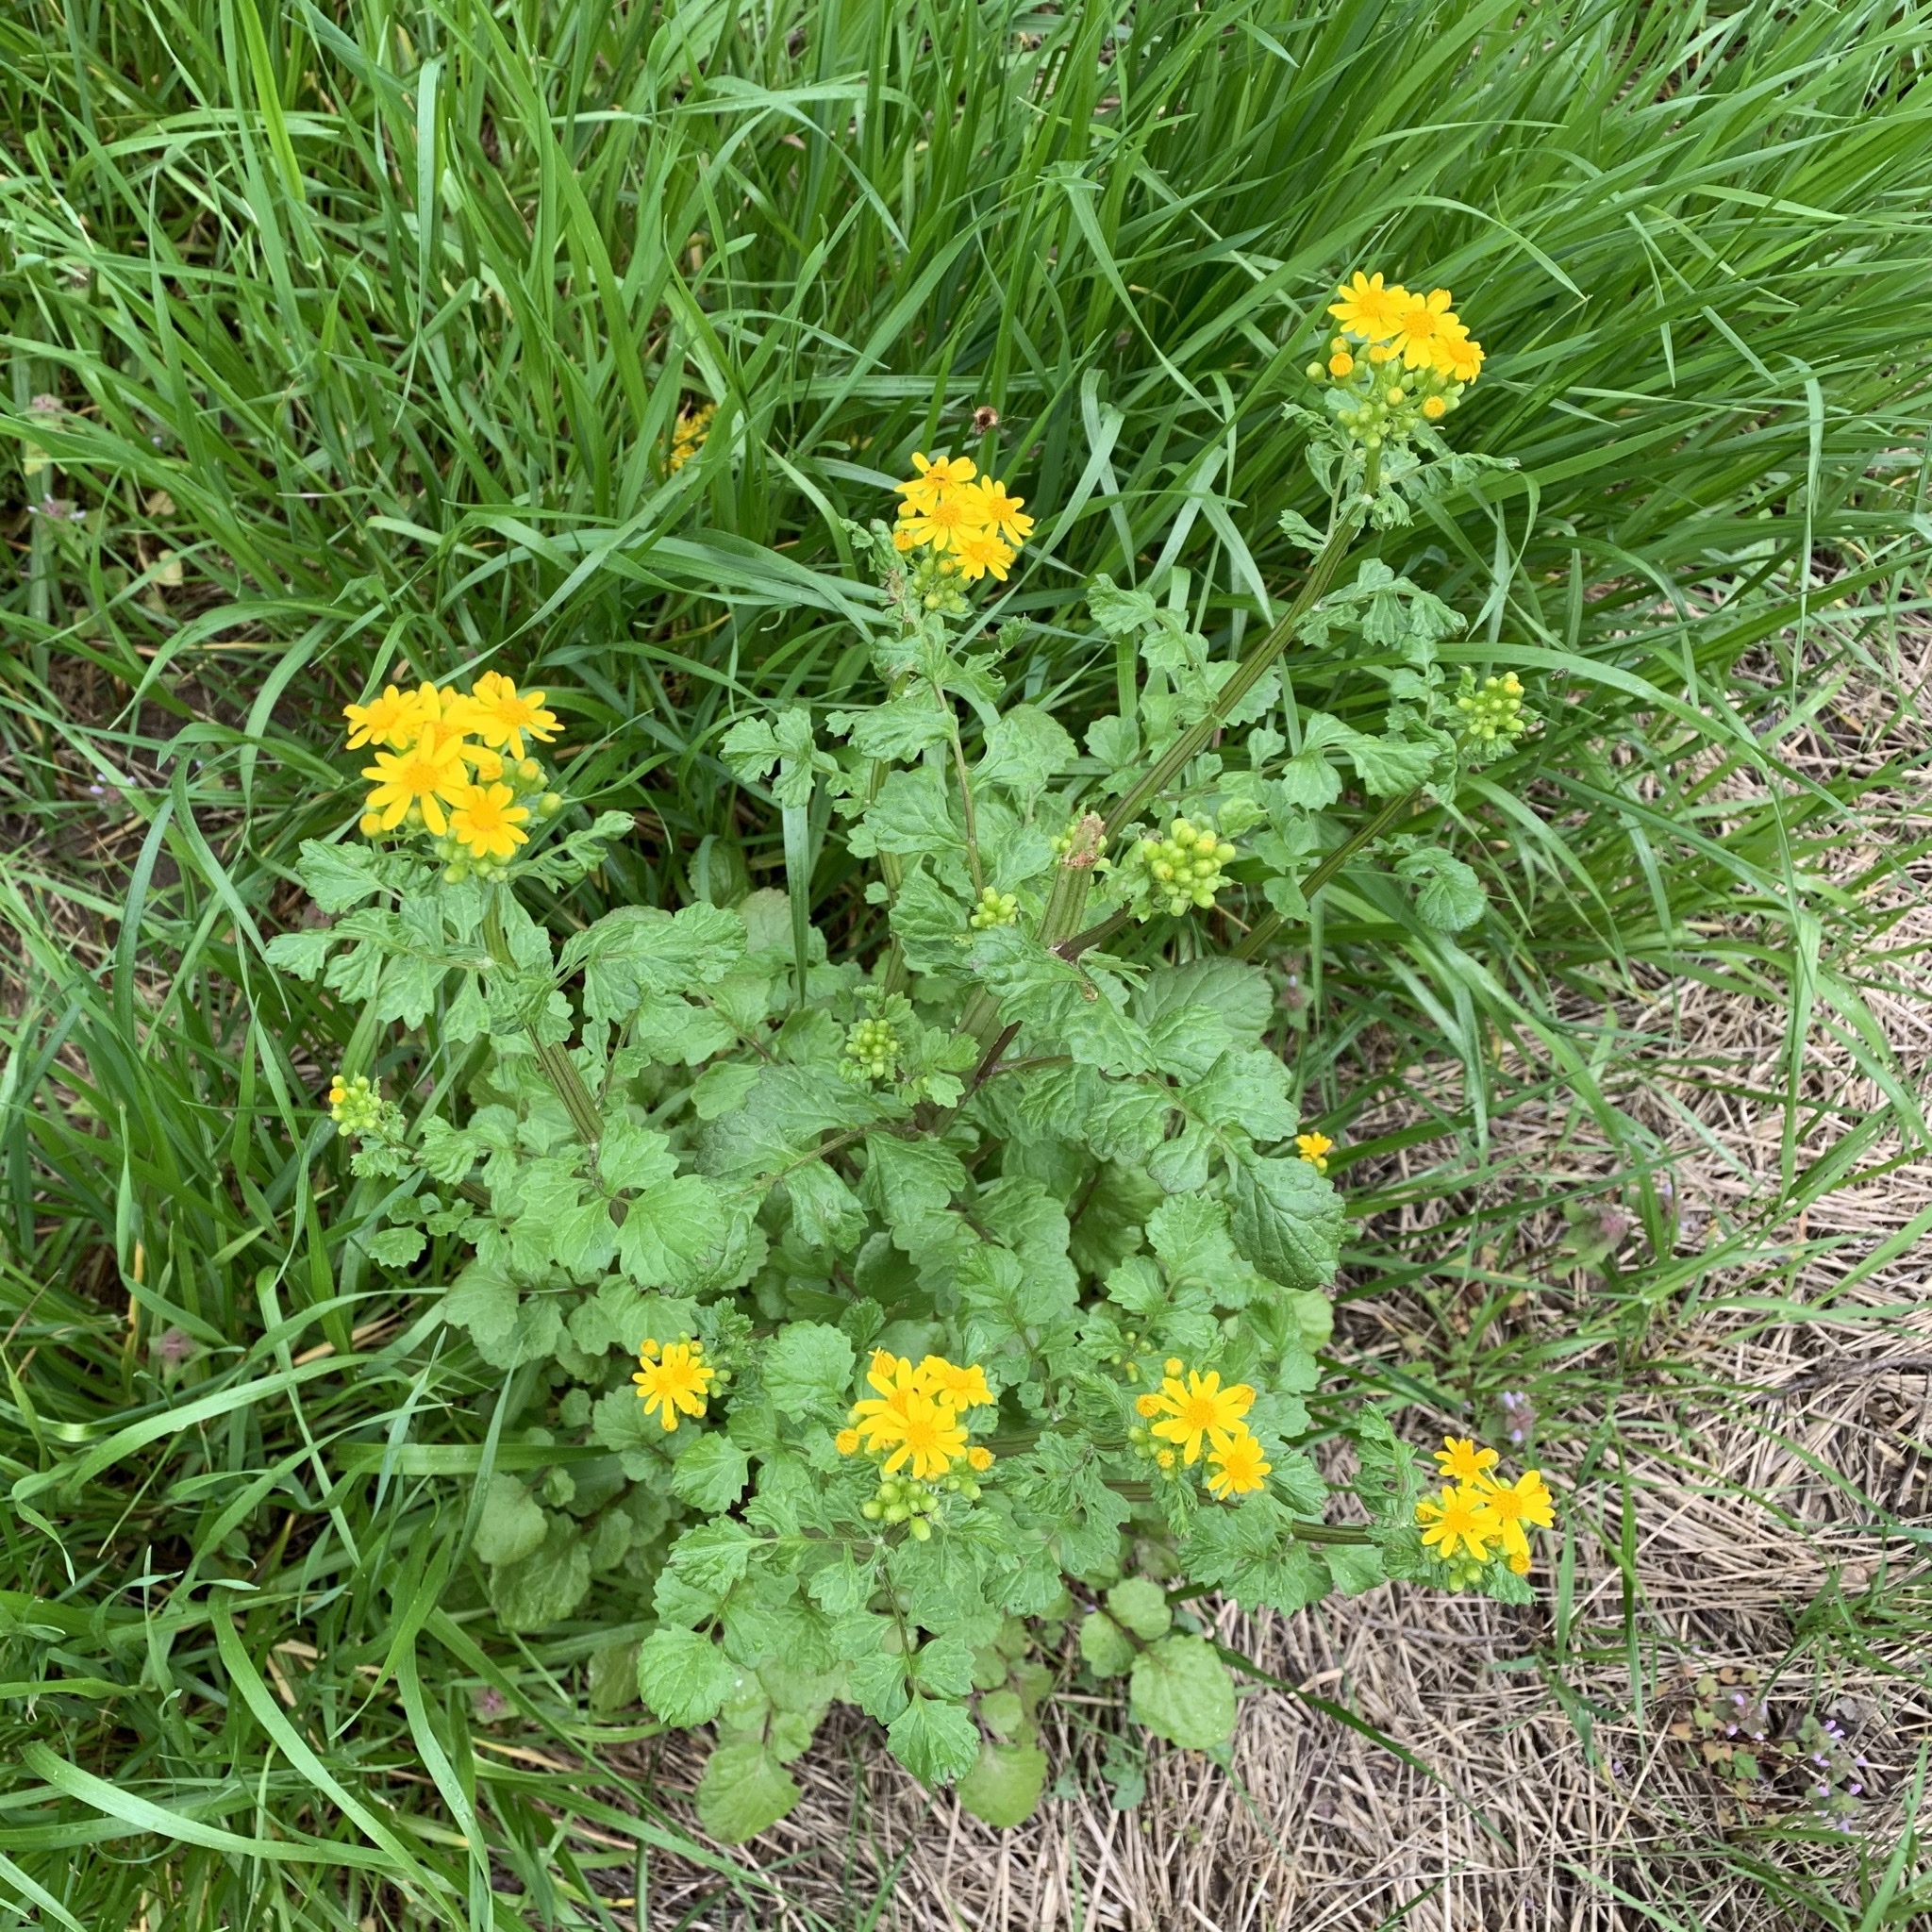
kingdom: Plantae
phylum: Tracheophyta
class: Magnoliopsida
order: Asterales
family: Asteraceae
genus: Packera
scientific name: Packera glabella
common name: Butterweed
